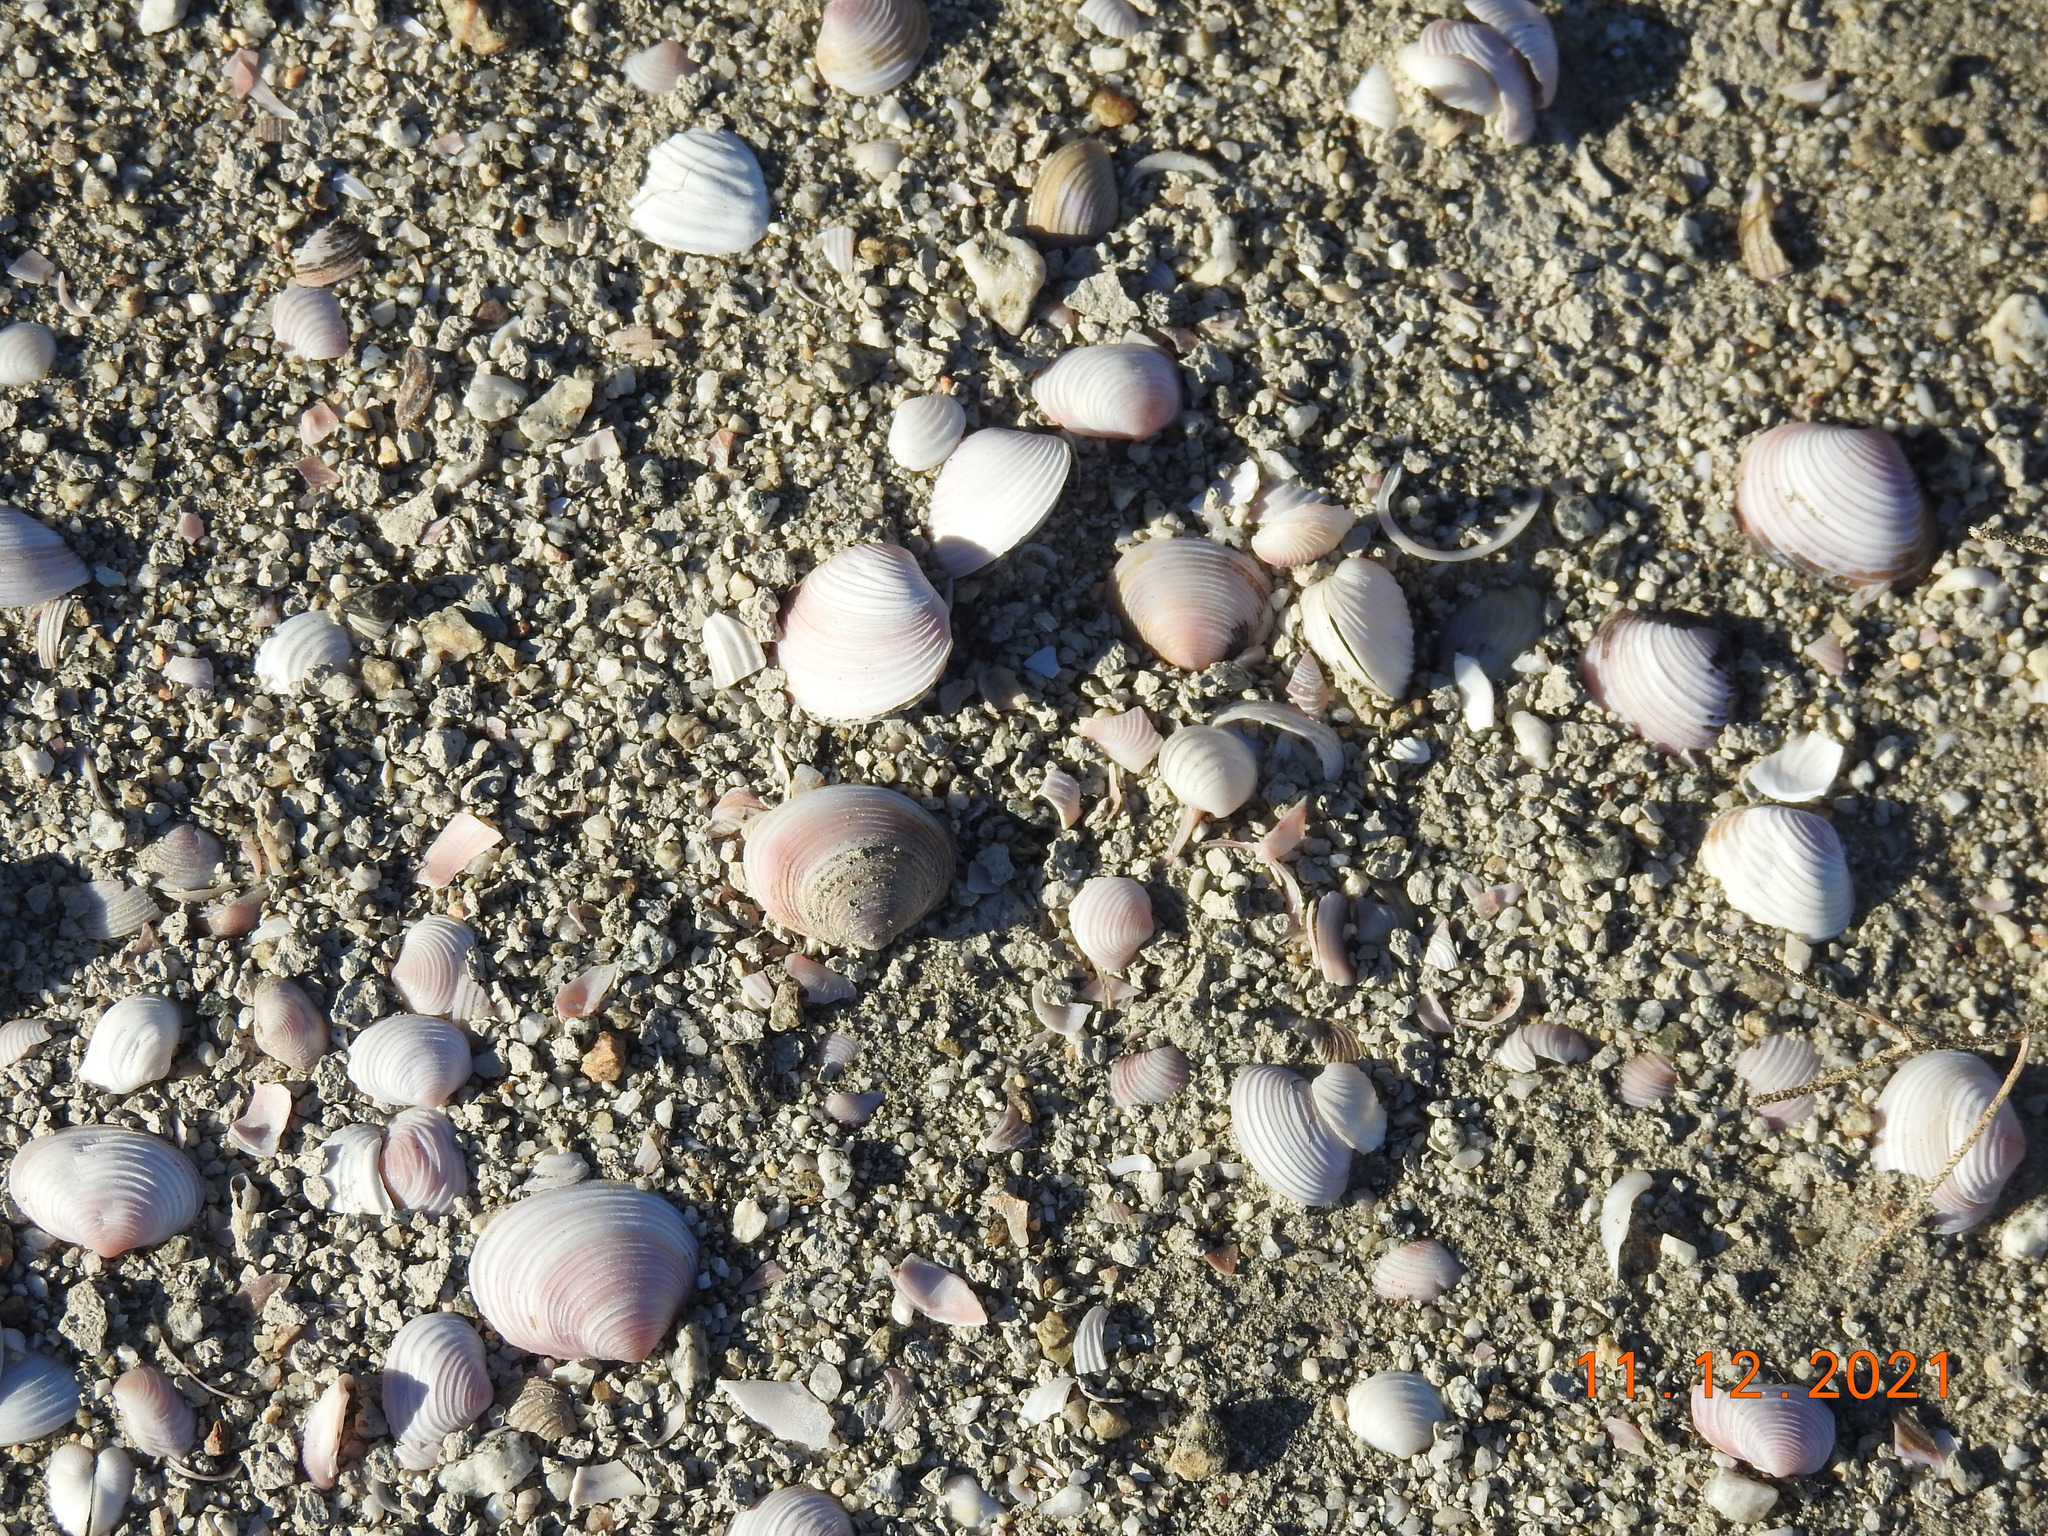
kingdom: Animalia
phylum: Mollusca
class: Bivalvia
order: Venerida
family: Cyrenidae
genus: Corbicula
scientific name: Corbicula fluminea
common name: Asian clam
